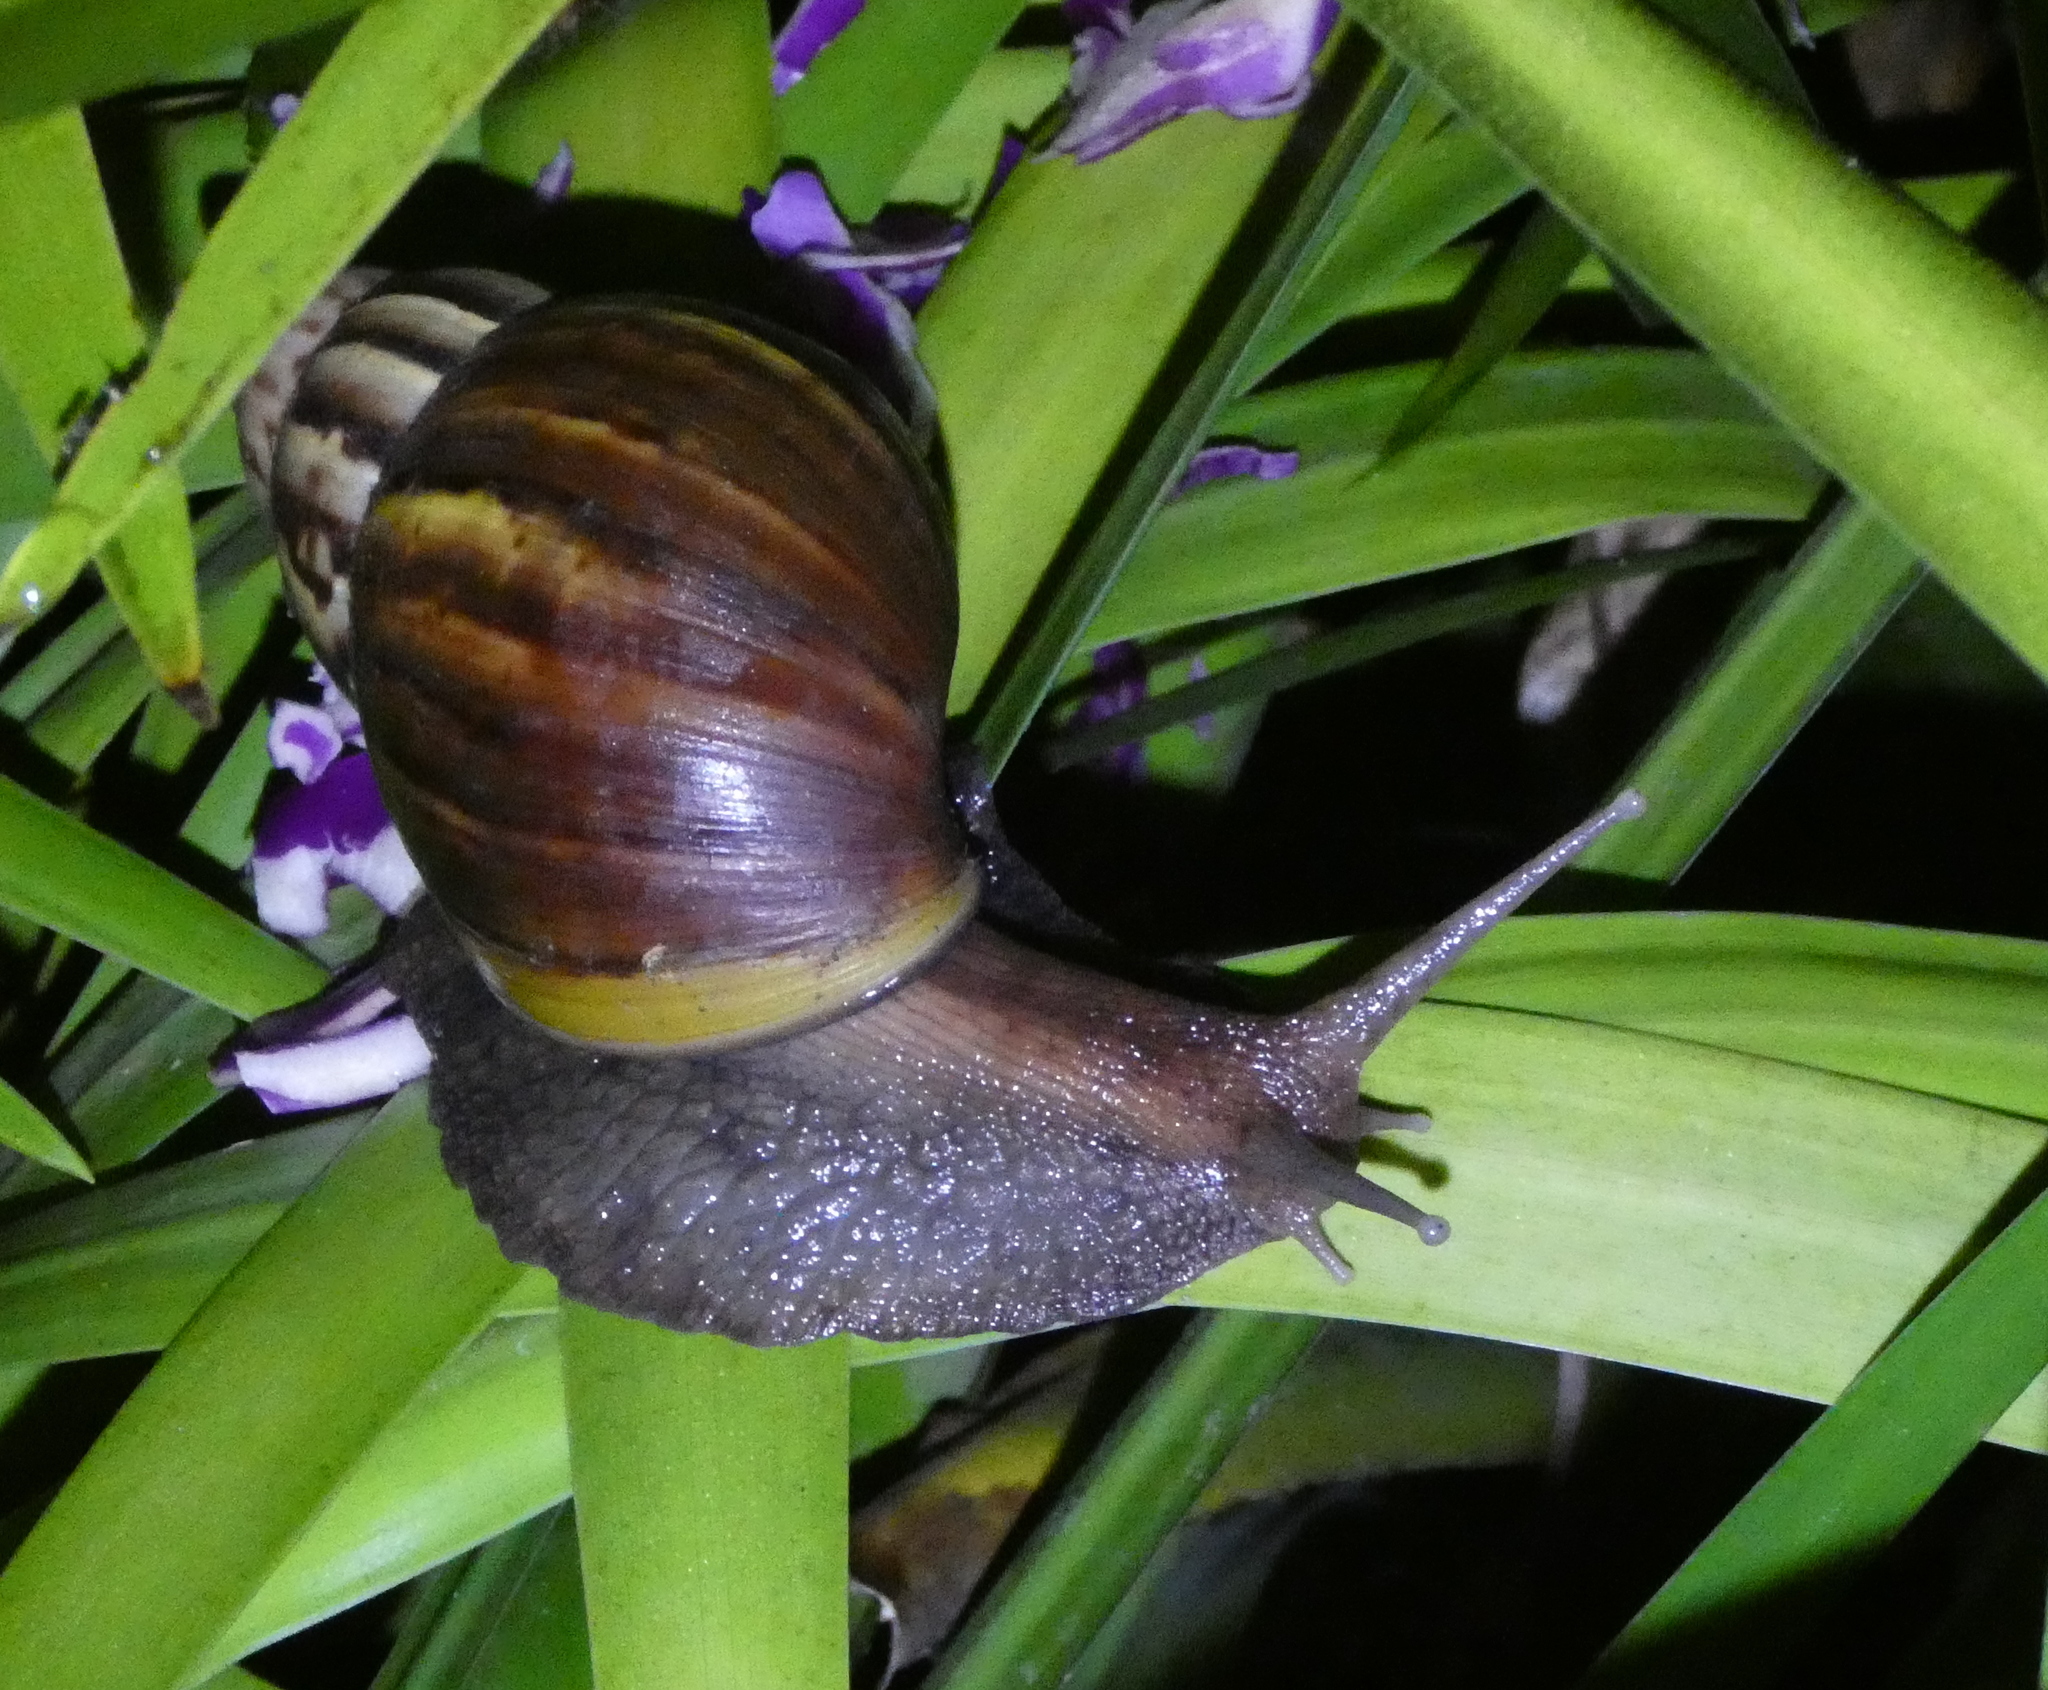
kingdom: Animalia
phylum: Mollusca
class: Gastropoda
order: Stylommatophora
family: Achatinidae
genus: Lissachatina
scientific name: Lissachatina fulica
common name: Giant african snail
